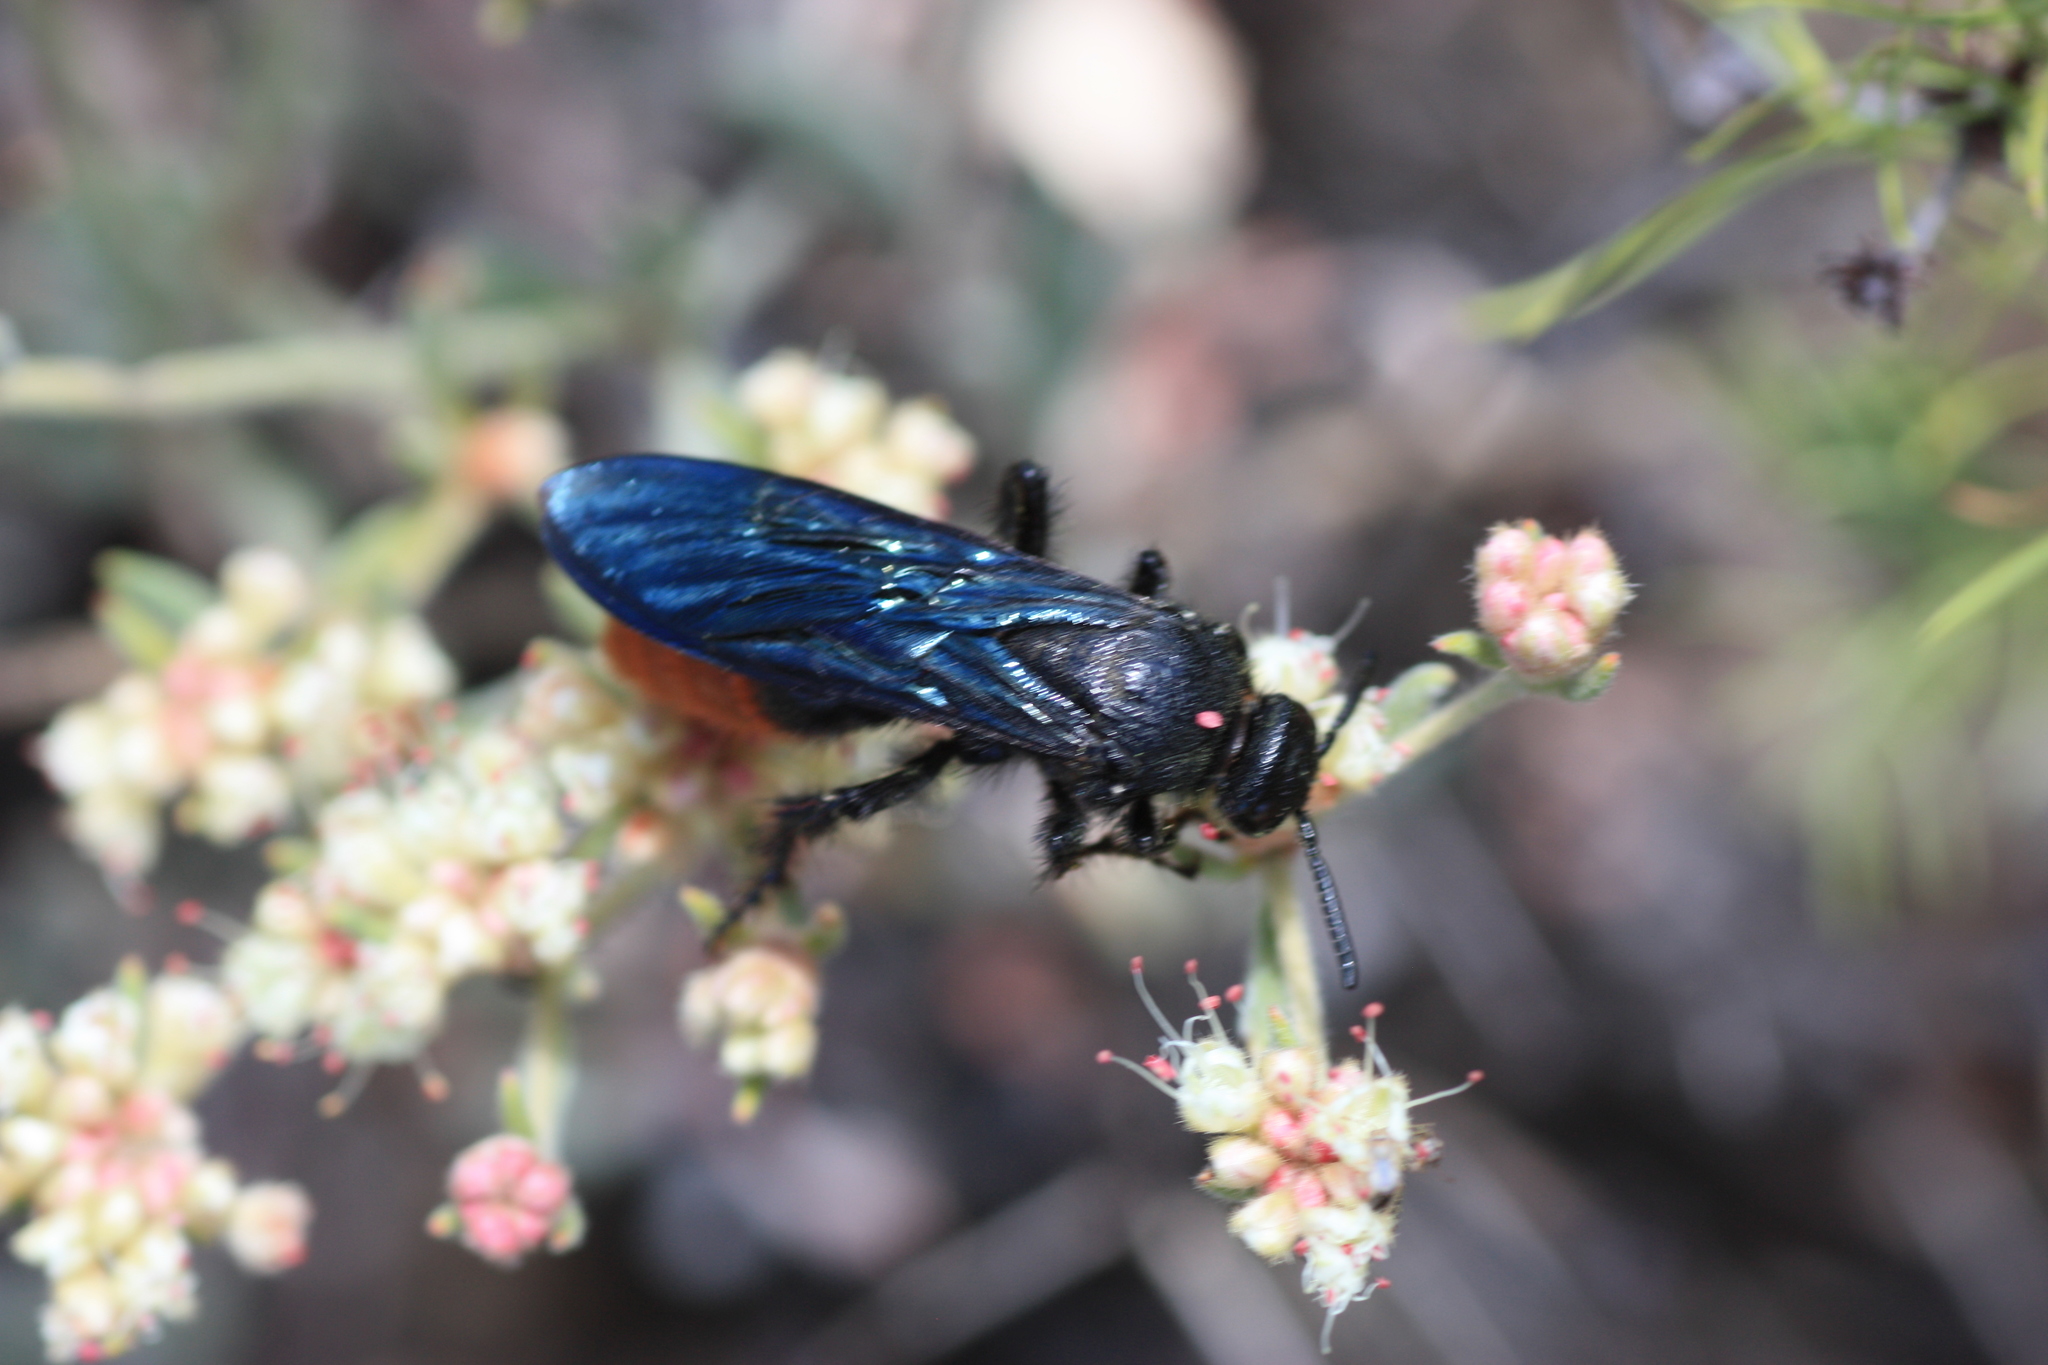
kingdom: Animalia
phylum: Arthropoda
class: Insecta
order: Hymenoptera
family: Scoliidae
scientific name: Scoliidae
